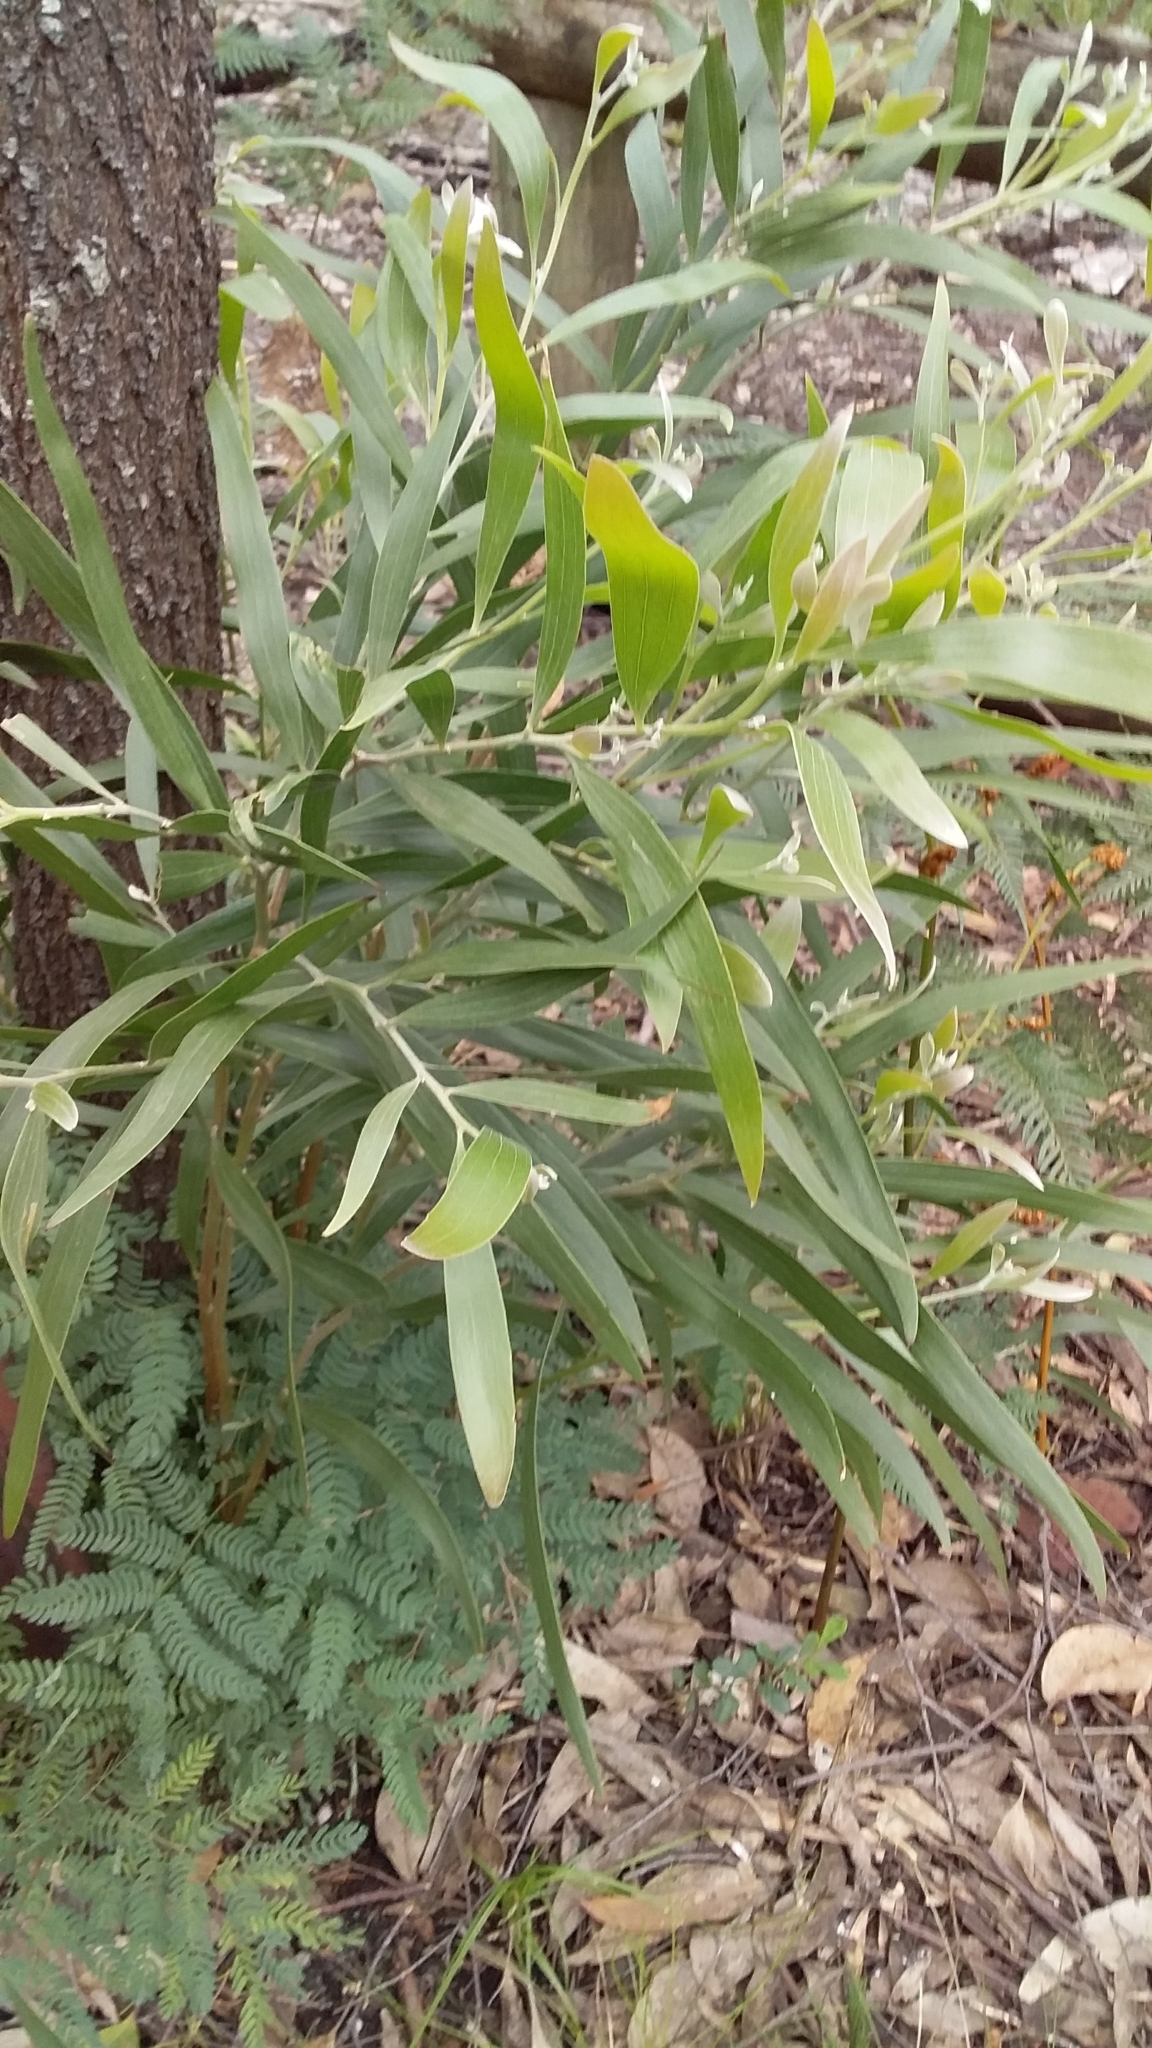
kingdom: Plantae
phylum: Tracheophyta
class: Magnoliopsida
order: Fabales
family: Fabaceae
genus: Acacia
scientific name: Acacia melanoxylon
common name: Blackwood
